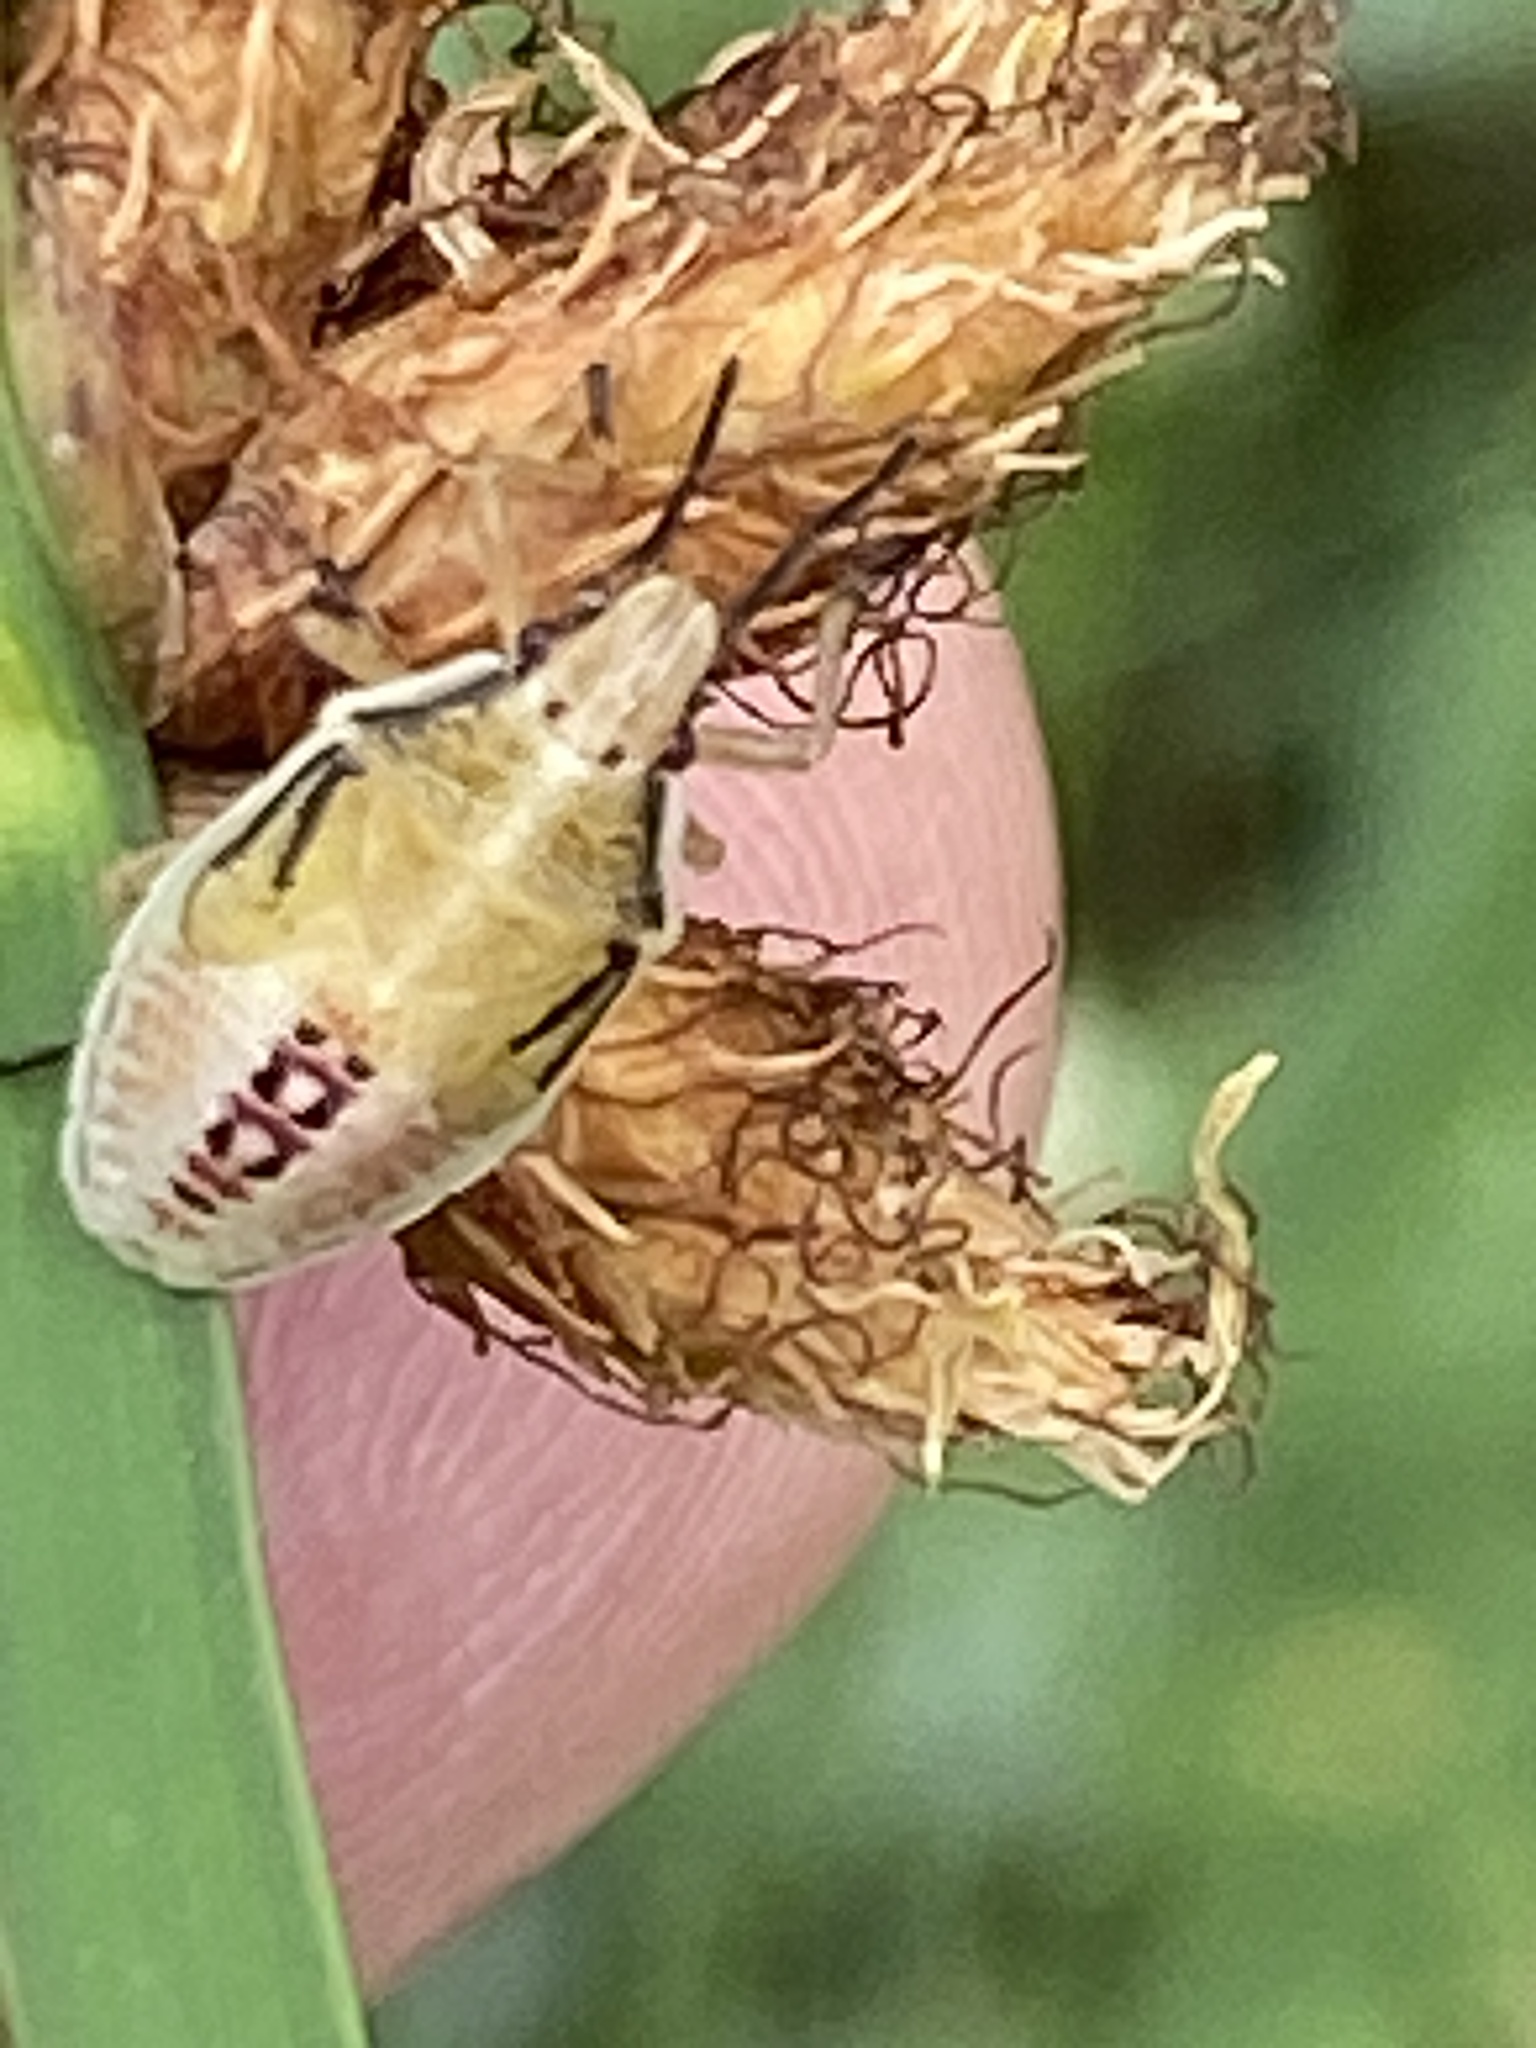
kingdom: Animalia
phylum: Arthropoda
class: Insecta
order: Hemiptera
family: Pentatomidae
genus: Oebalus
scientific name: Oebalus pugnax
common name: Rice stink bug
